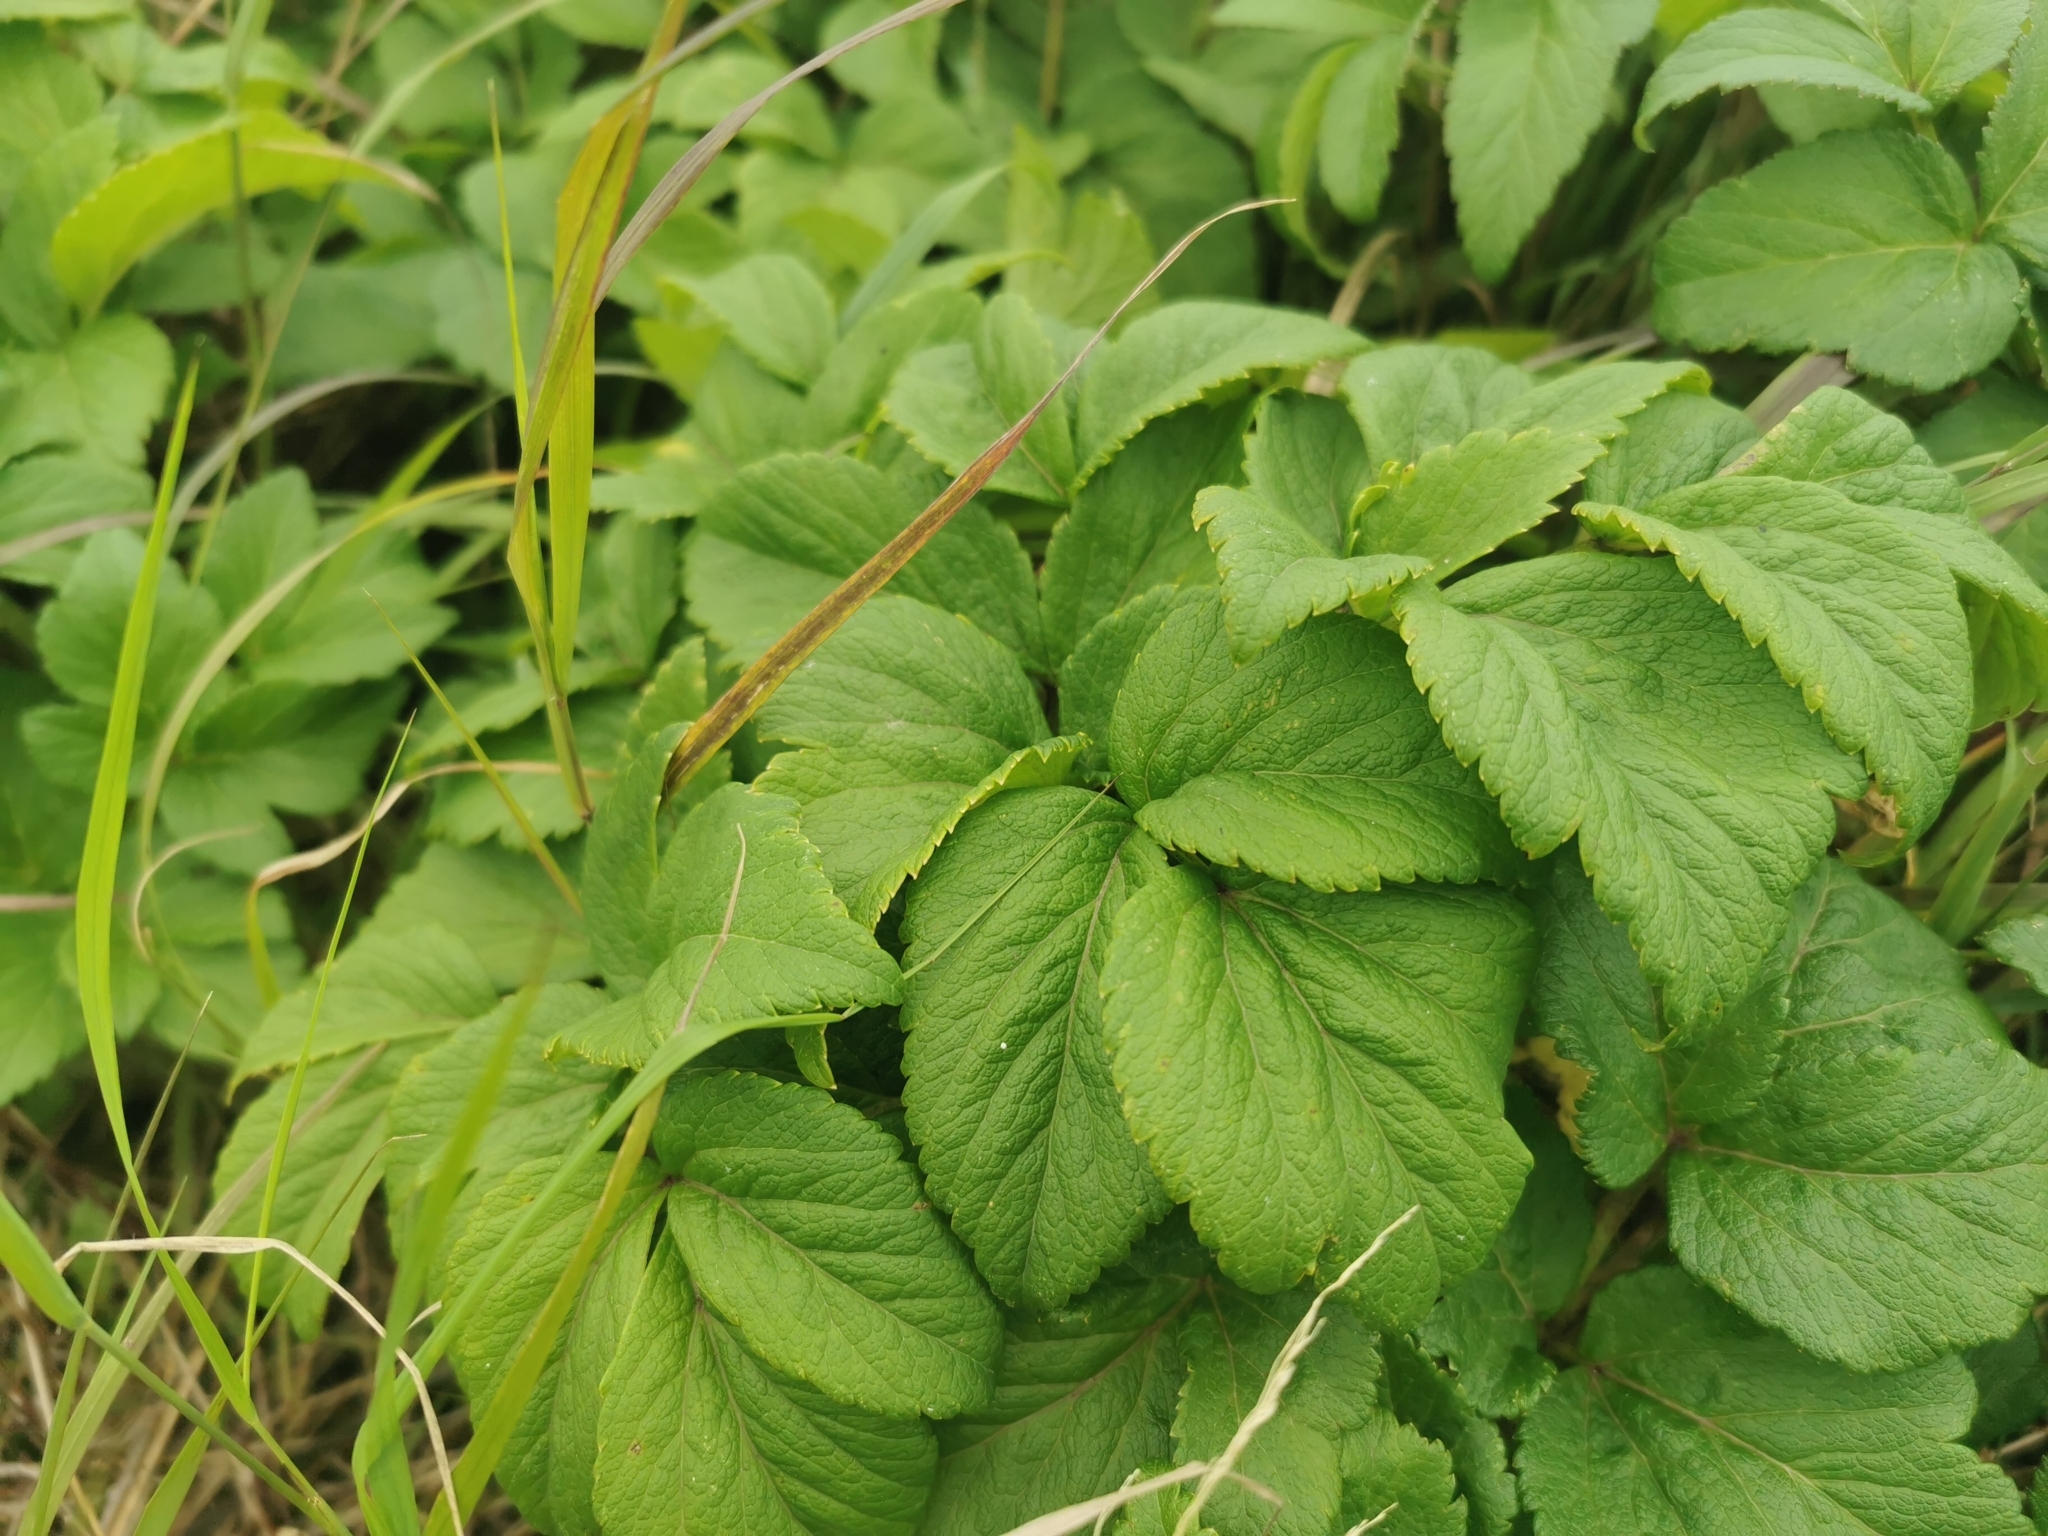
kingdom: Plantae
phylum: Tracheophyta
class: Magnoliopsida
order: Apiales
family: Apiaceae
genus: Angelica
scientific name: Angelica gmelinii
